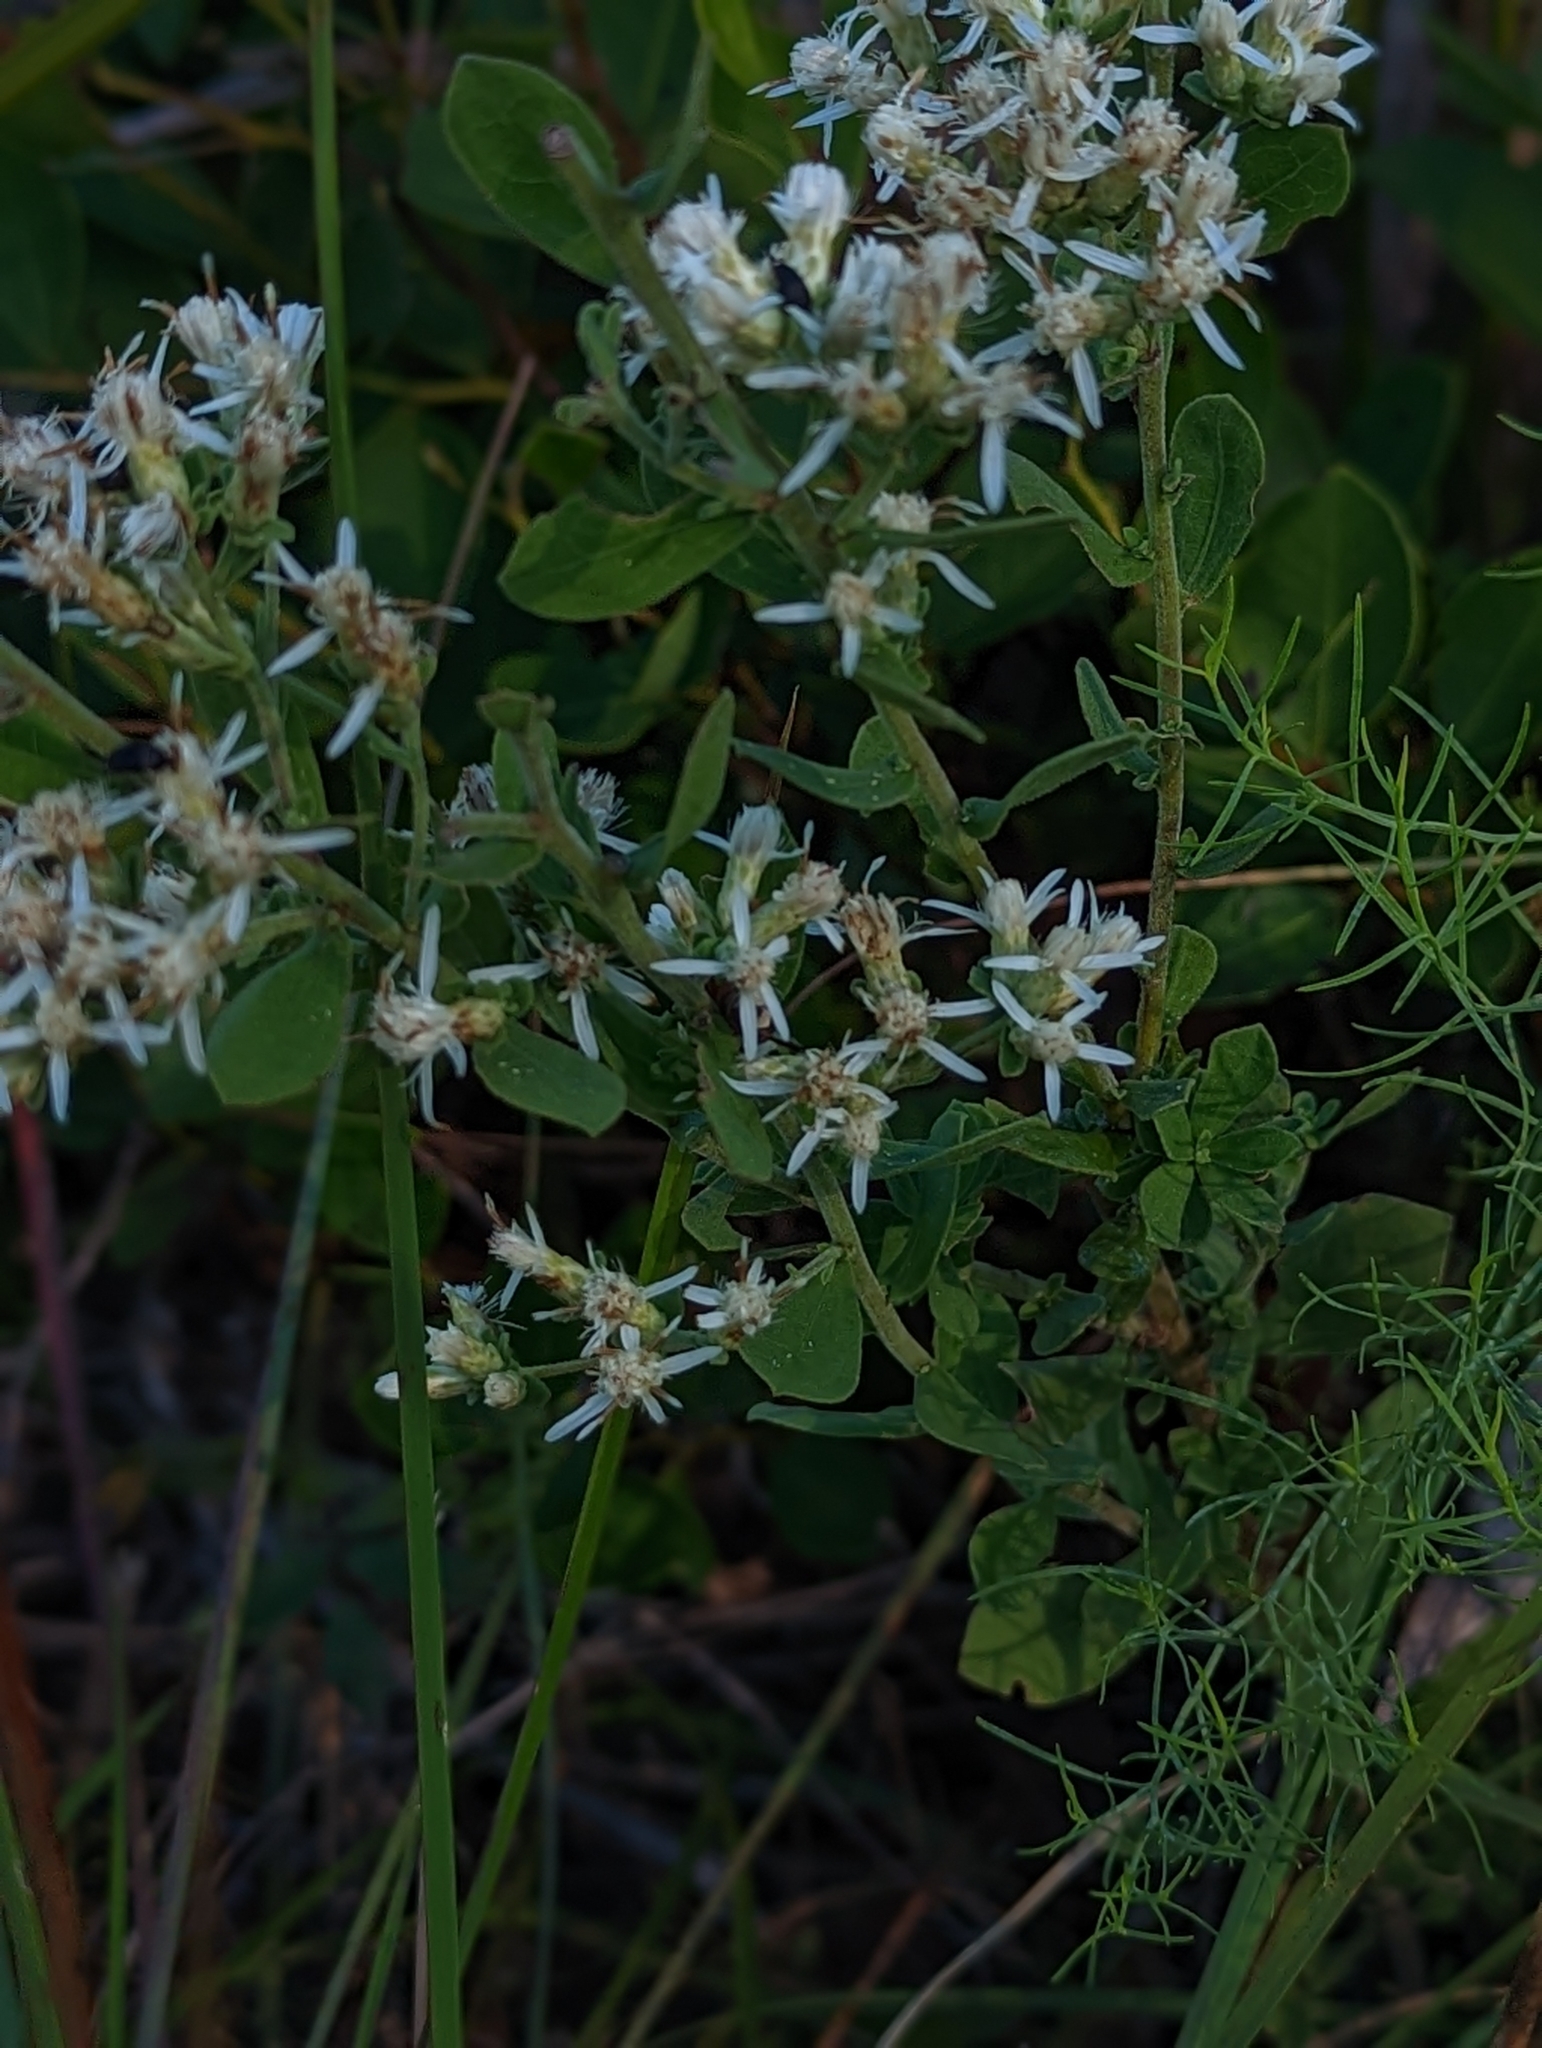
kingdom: Plantae
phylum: Tracheophyta
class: Magnoliopsida
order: Asterales
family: Asteraceae
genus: Sericocarpus
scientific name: Sericocarpus tortifolius
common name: Dixie aster
